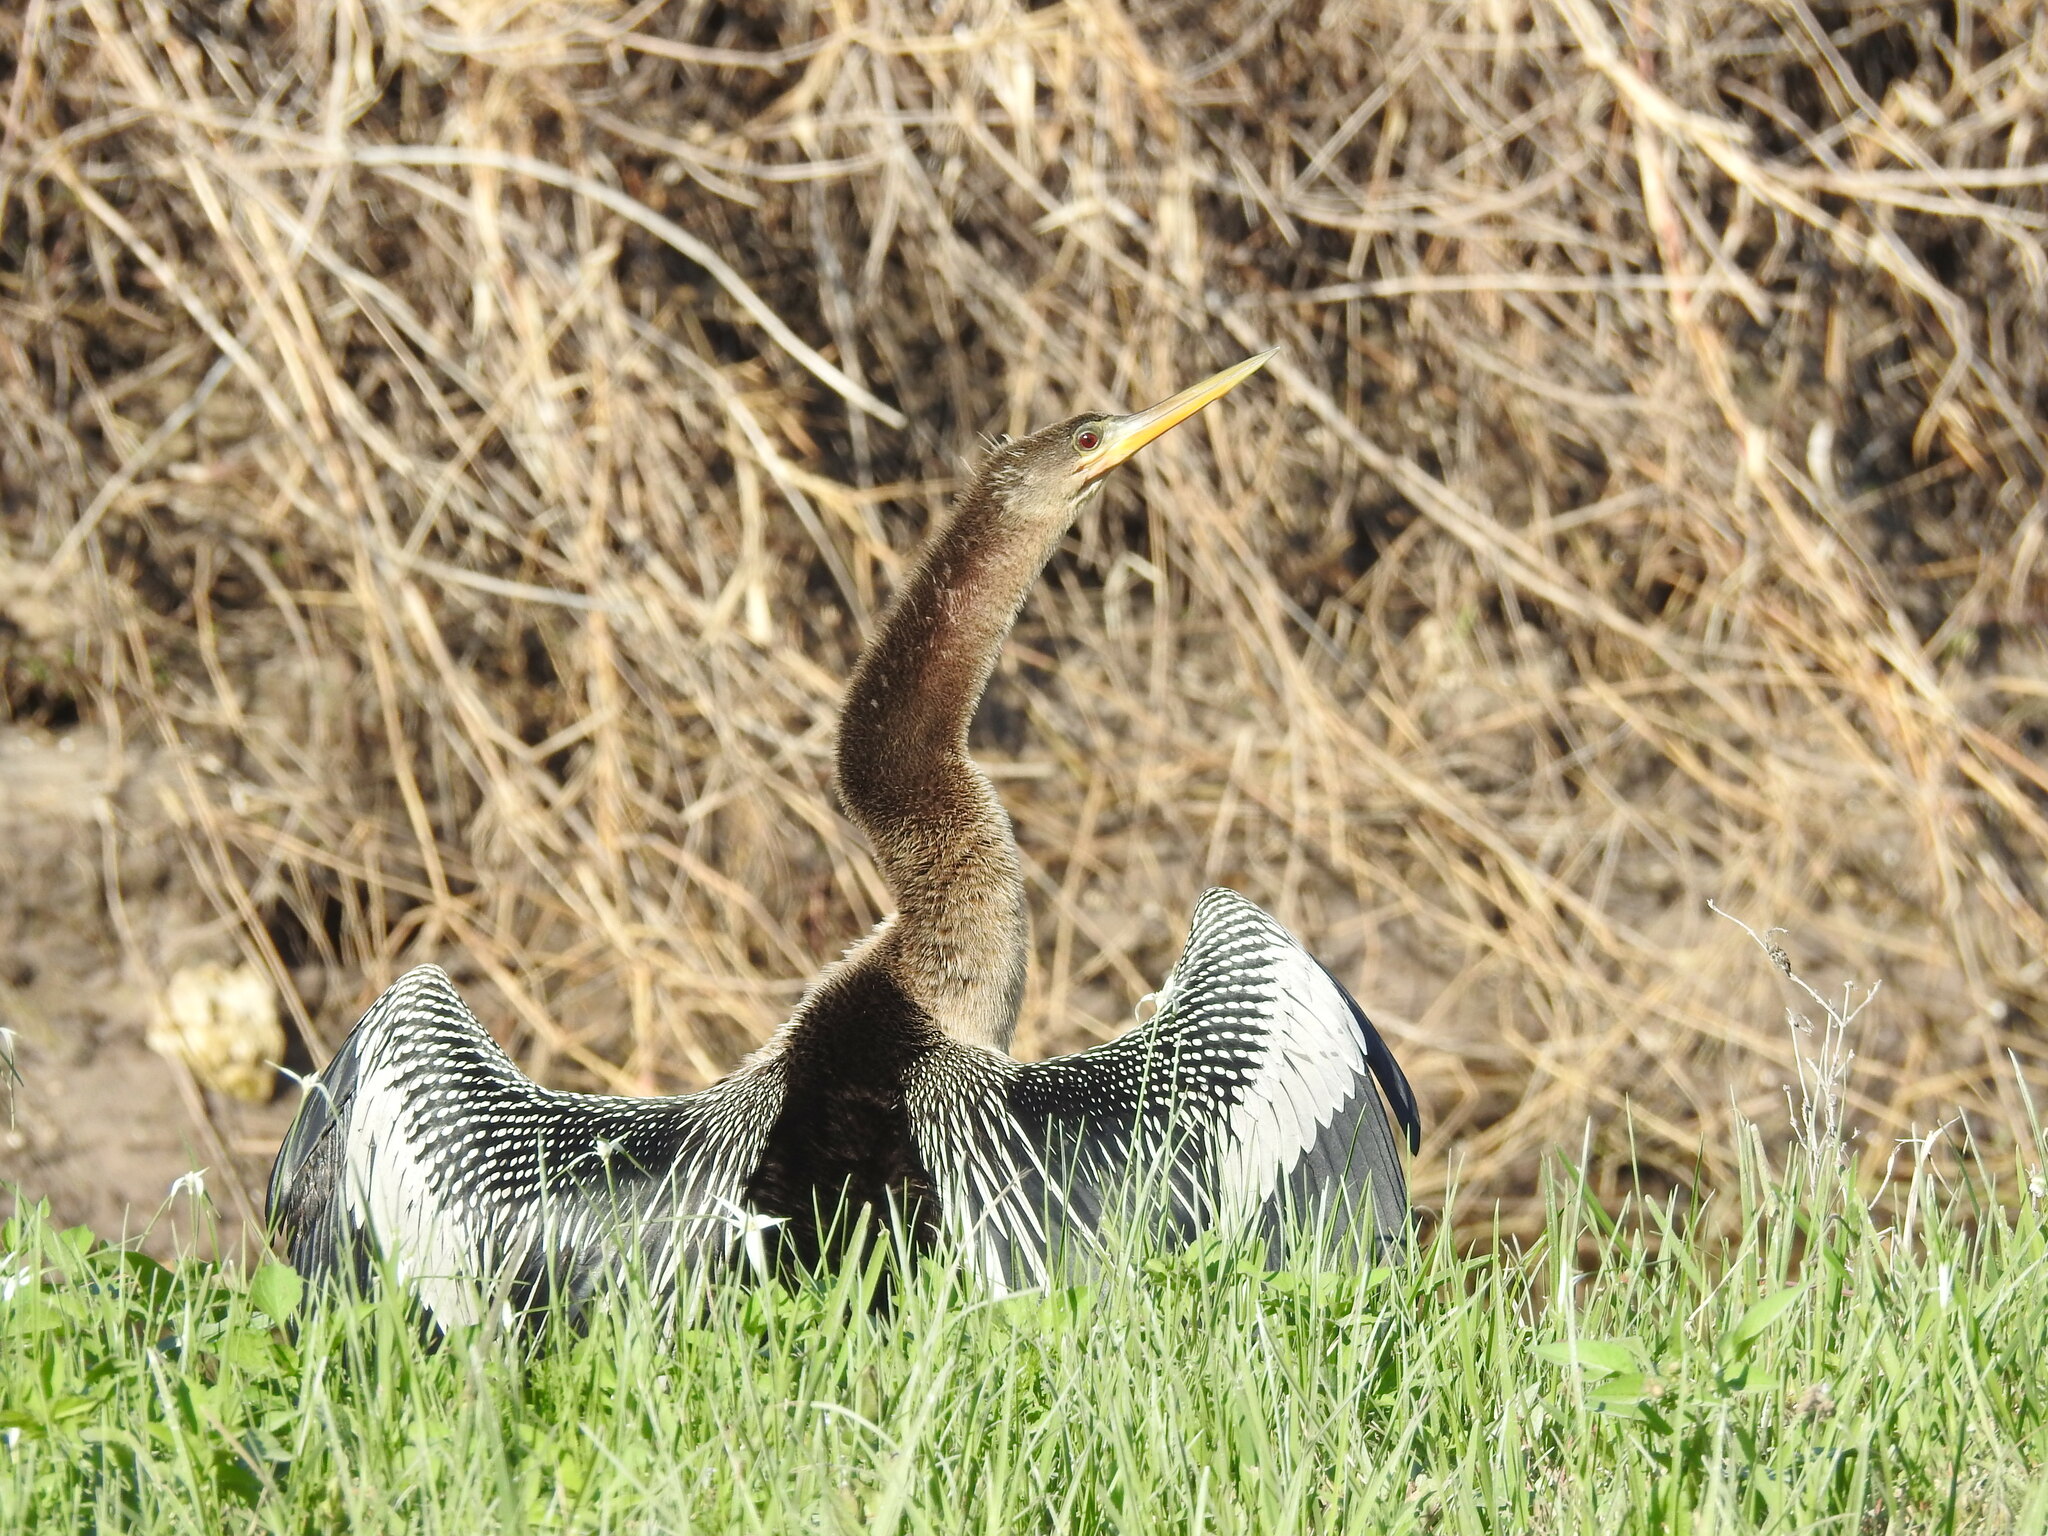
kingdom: Animalia
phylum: Chordata
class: Aves
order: Suliformes
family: Anhingidae
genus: Anhinga
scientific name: Anhinga anhinga
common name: Anhinga
